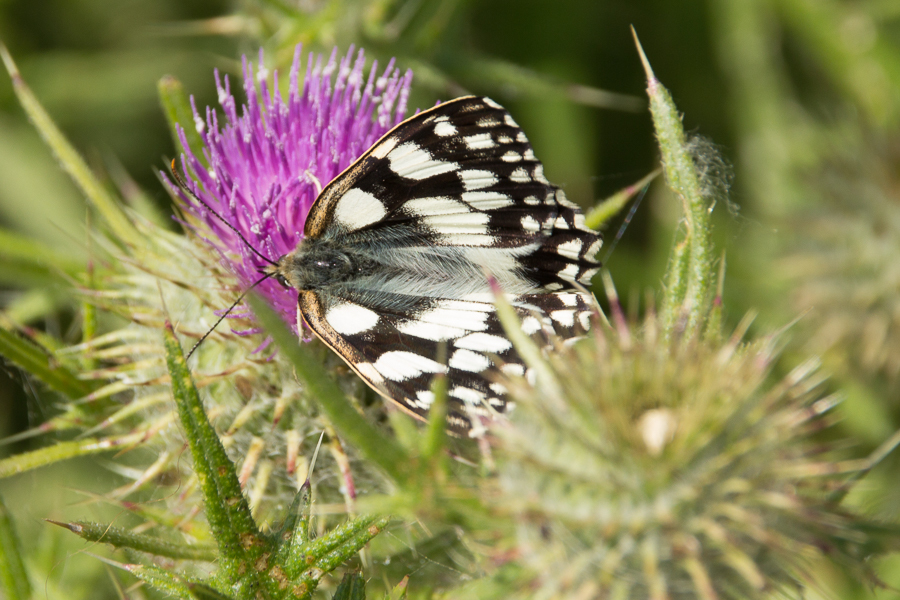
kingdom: Animalia
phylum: Arthropoda
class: Insecta
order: Lepidoptera
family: Nymphalidae
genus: Melanargia
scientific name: Melanargia galathea
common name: Marbled white
